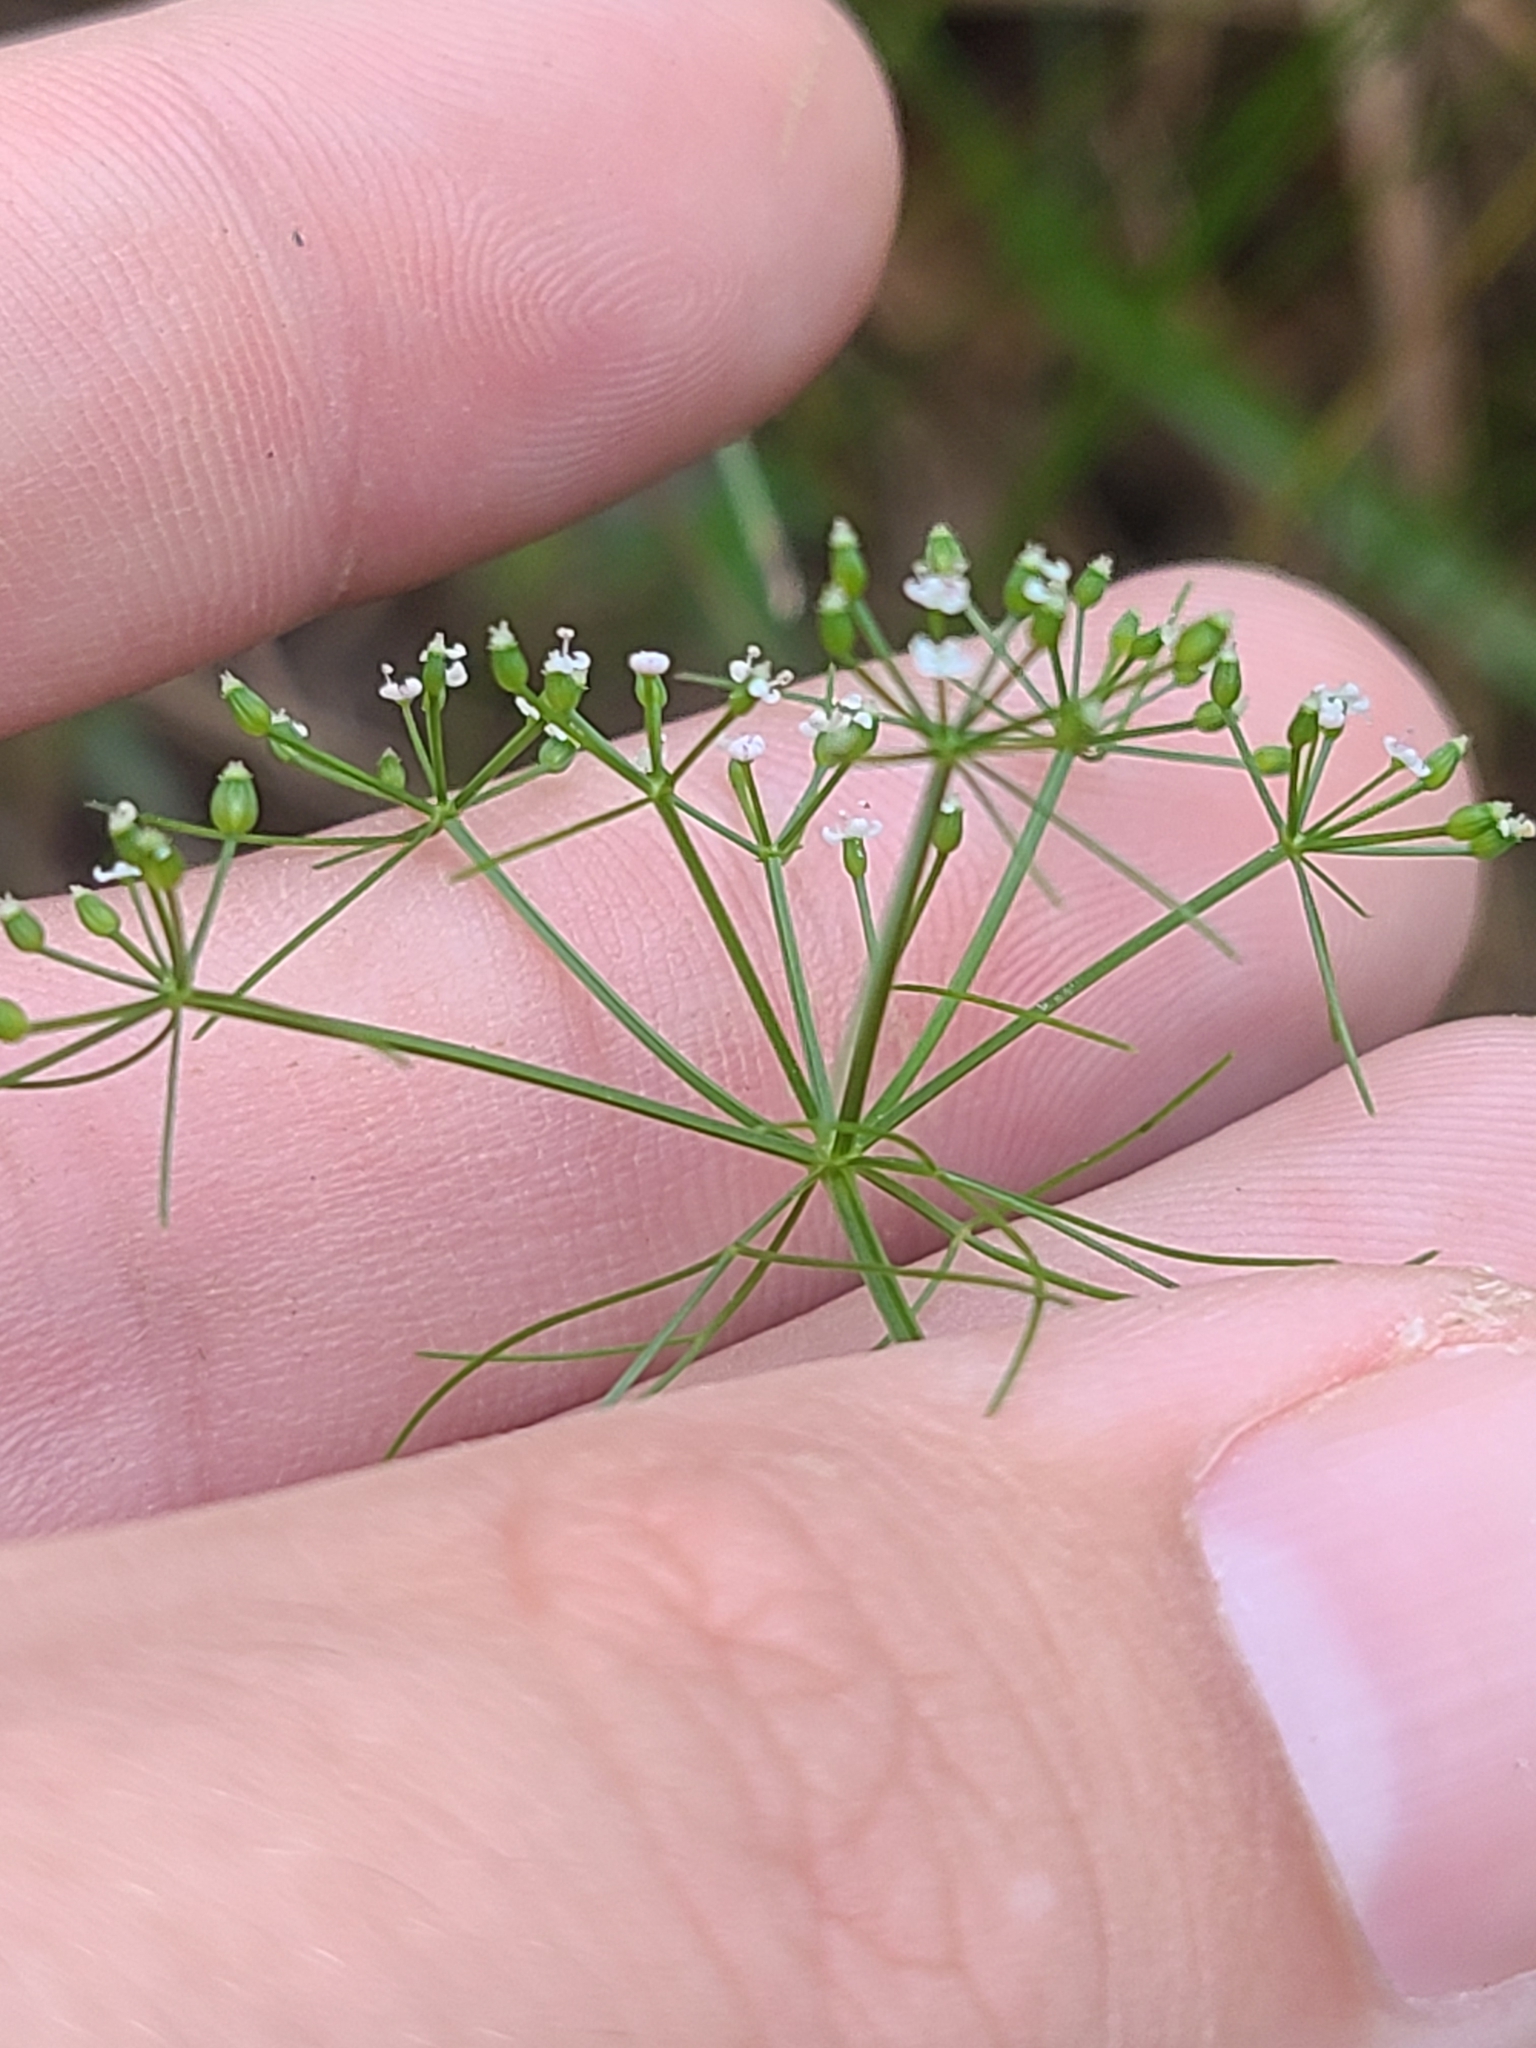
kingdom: Plantae
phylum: Tracheophyta
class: Magnoliopsida
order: Apiales
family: Apiaceae
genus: Ptilimnium
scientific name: Ptilimnium capillaceum
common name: Herbwilliam
